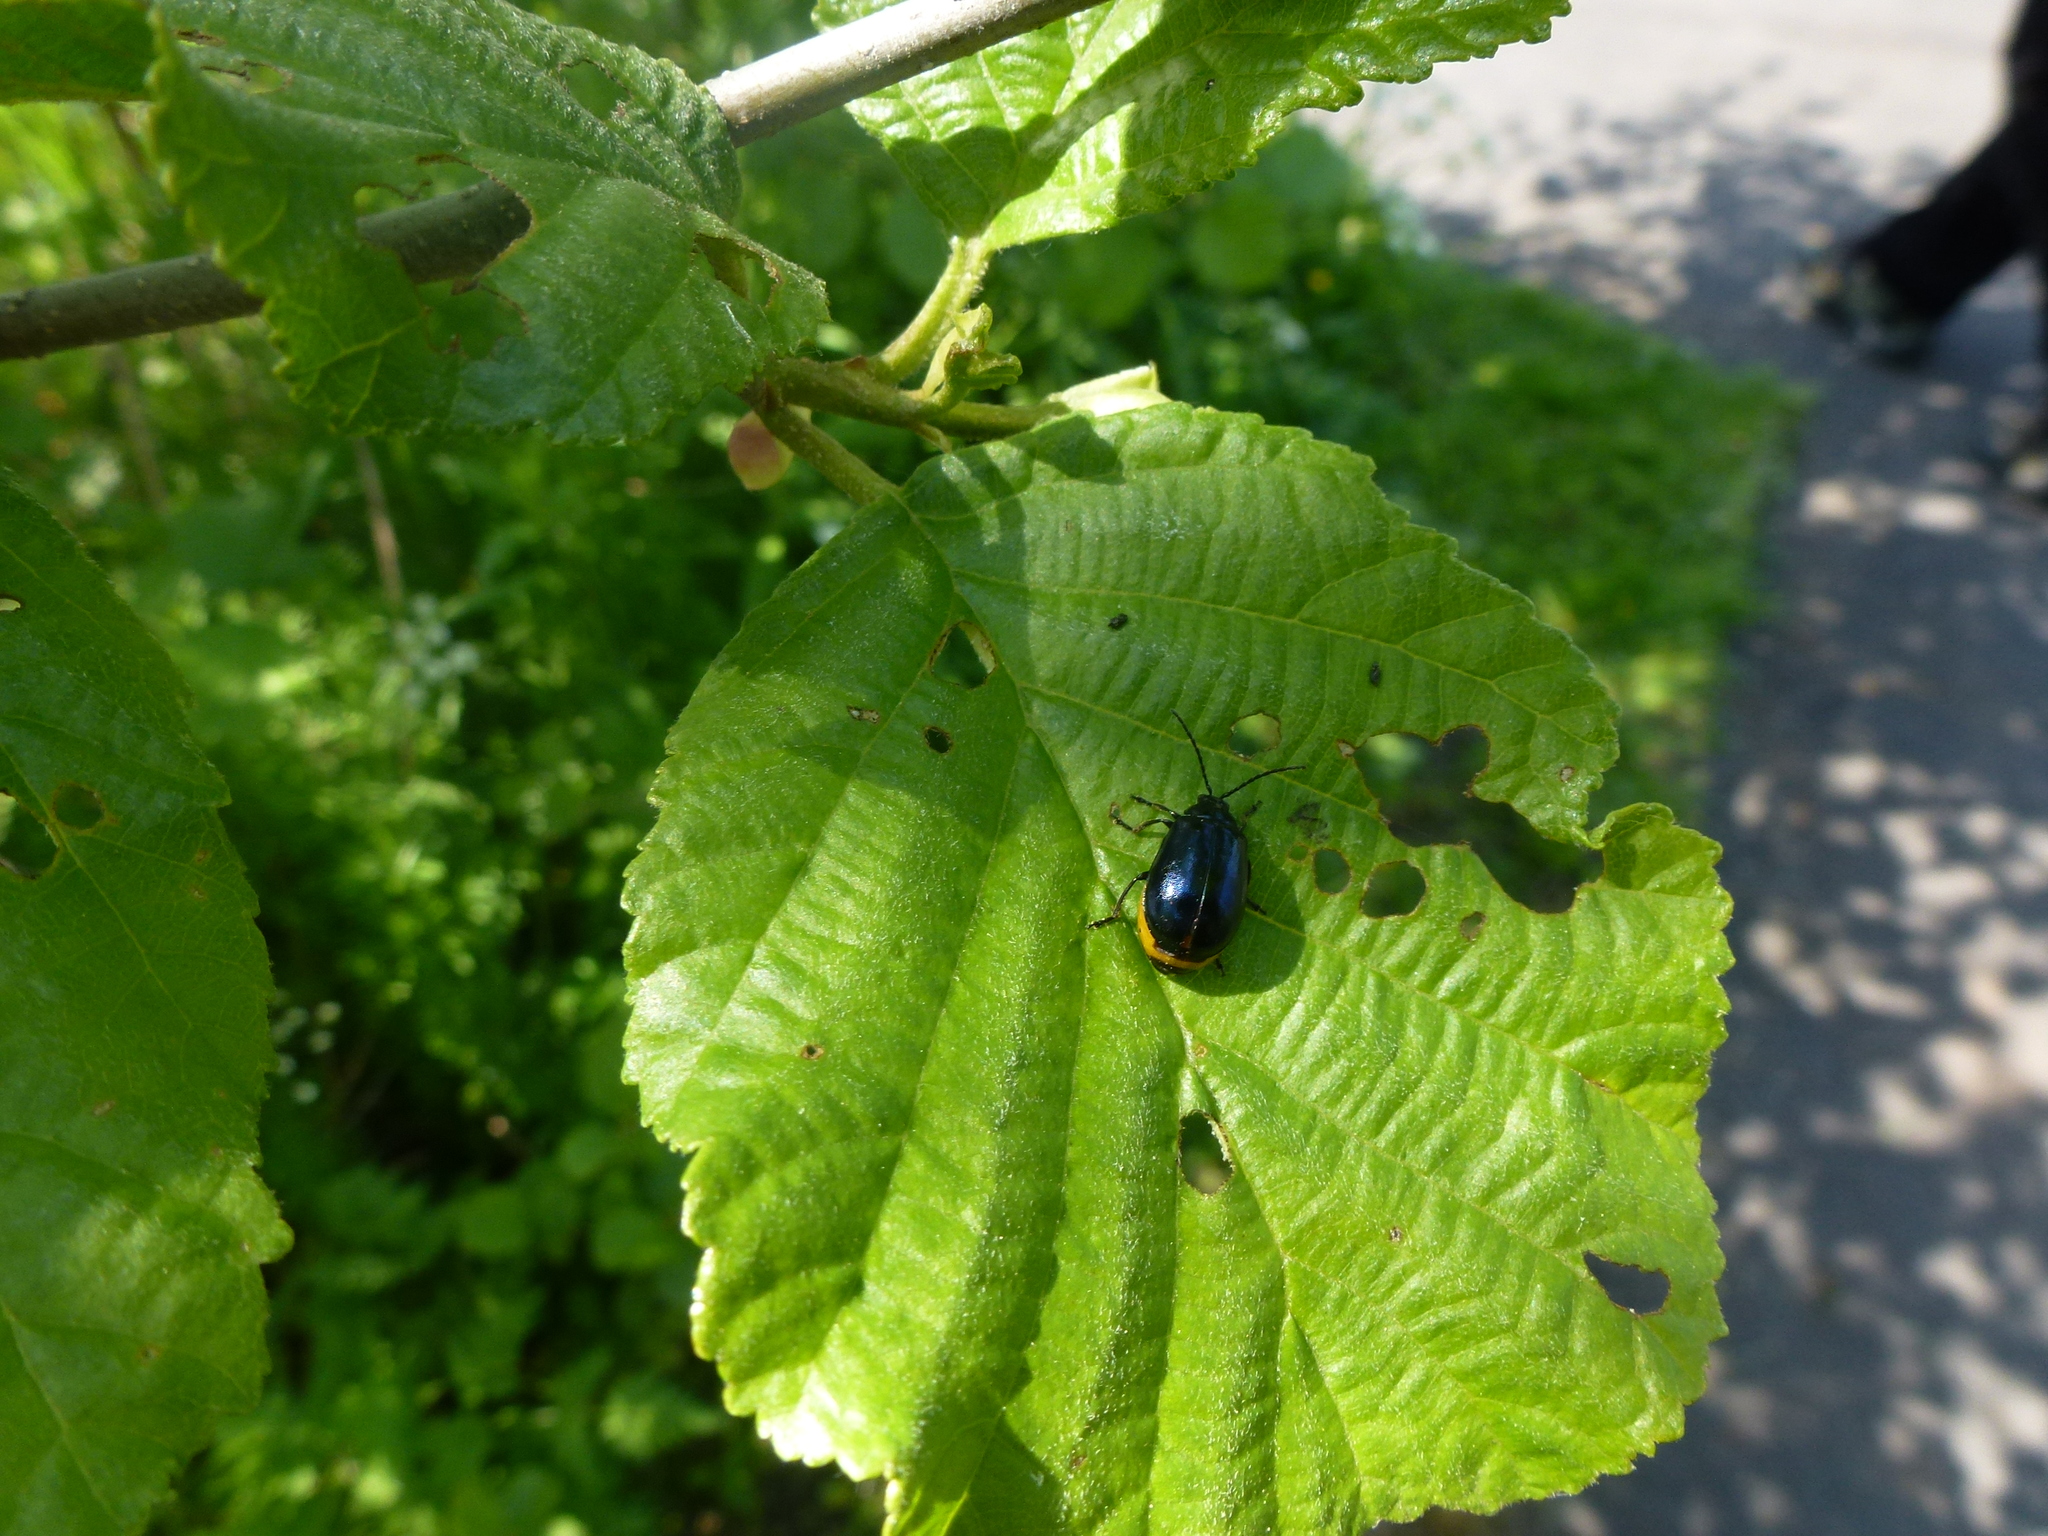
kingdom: Animalia
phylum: Arthropoda
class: Insecta
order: Coleoptera
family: Chrysomelidae
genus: Agelastica
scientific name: Agelastica alni
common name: Alder leaf beetle
